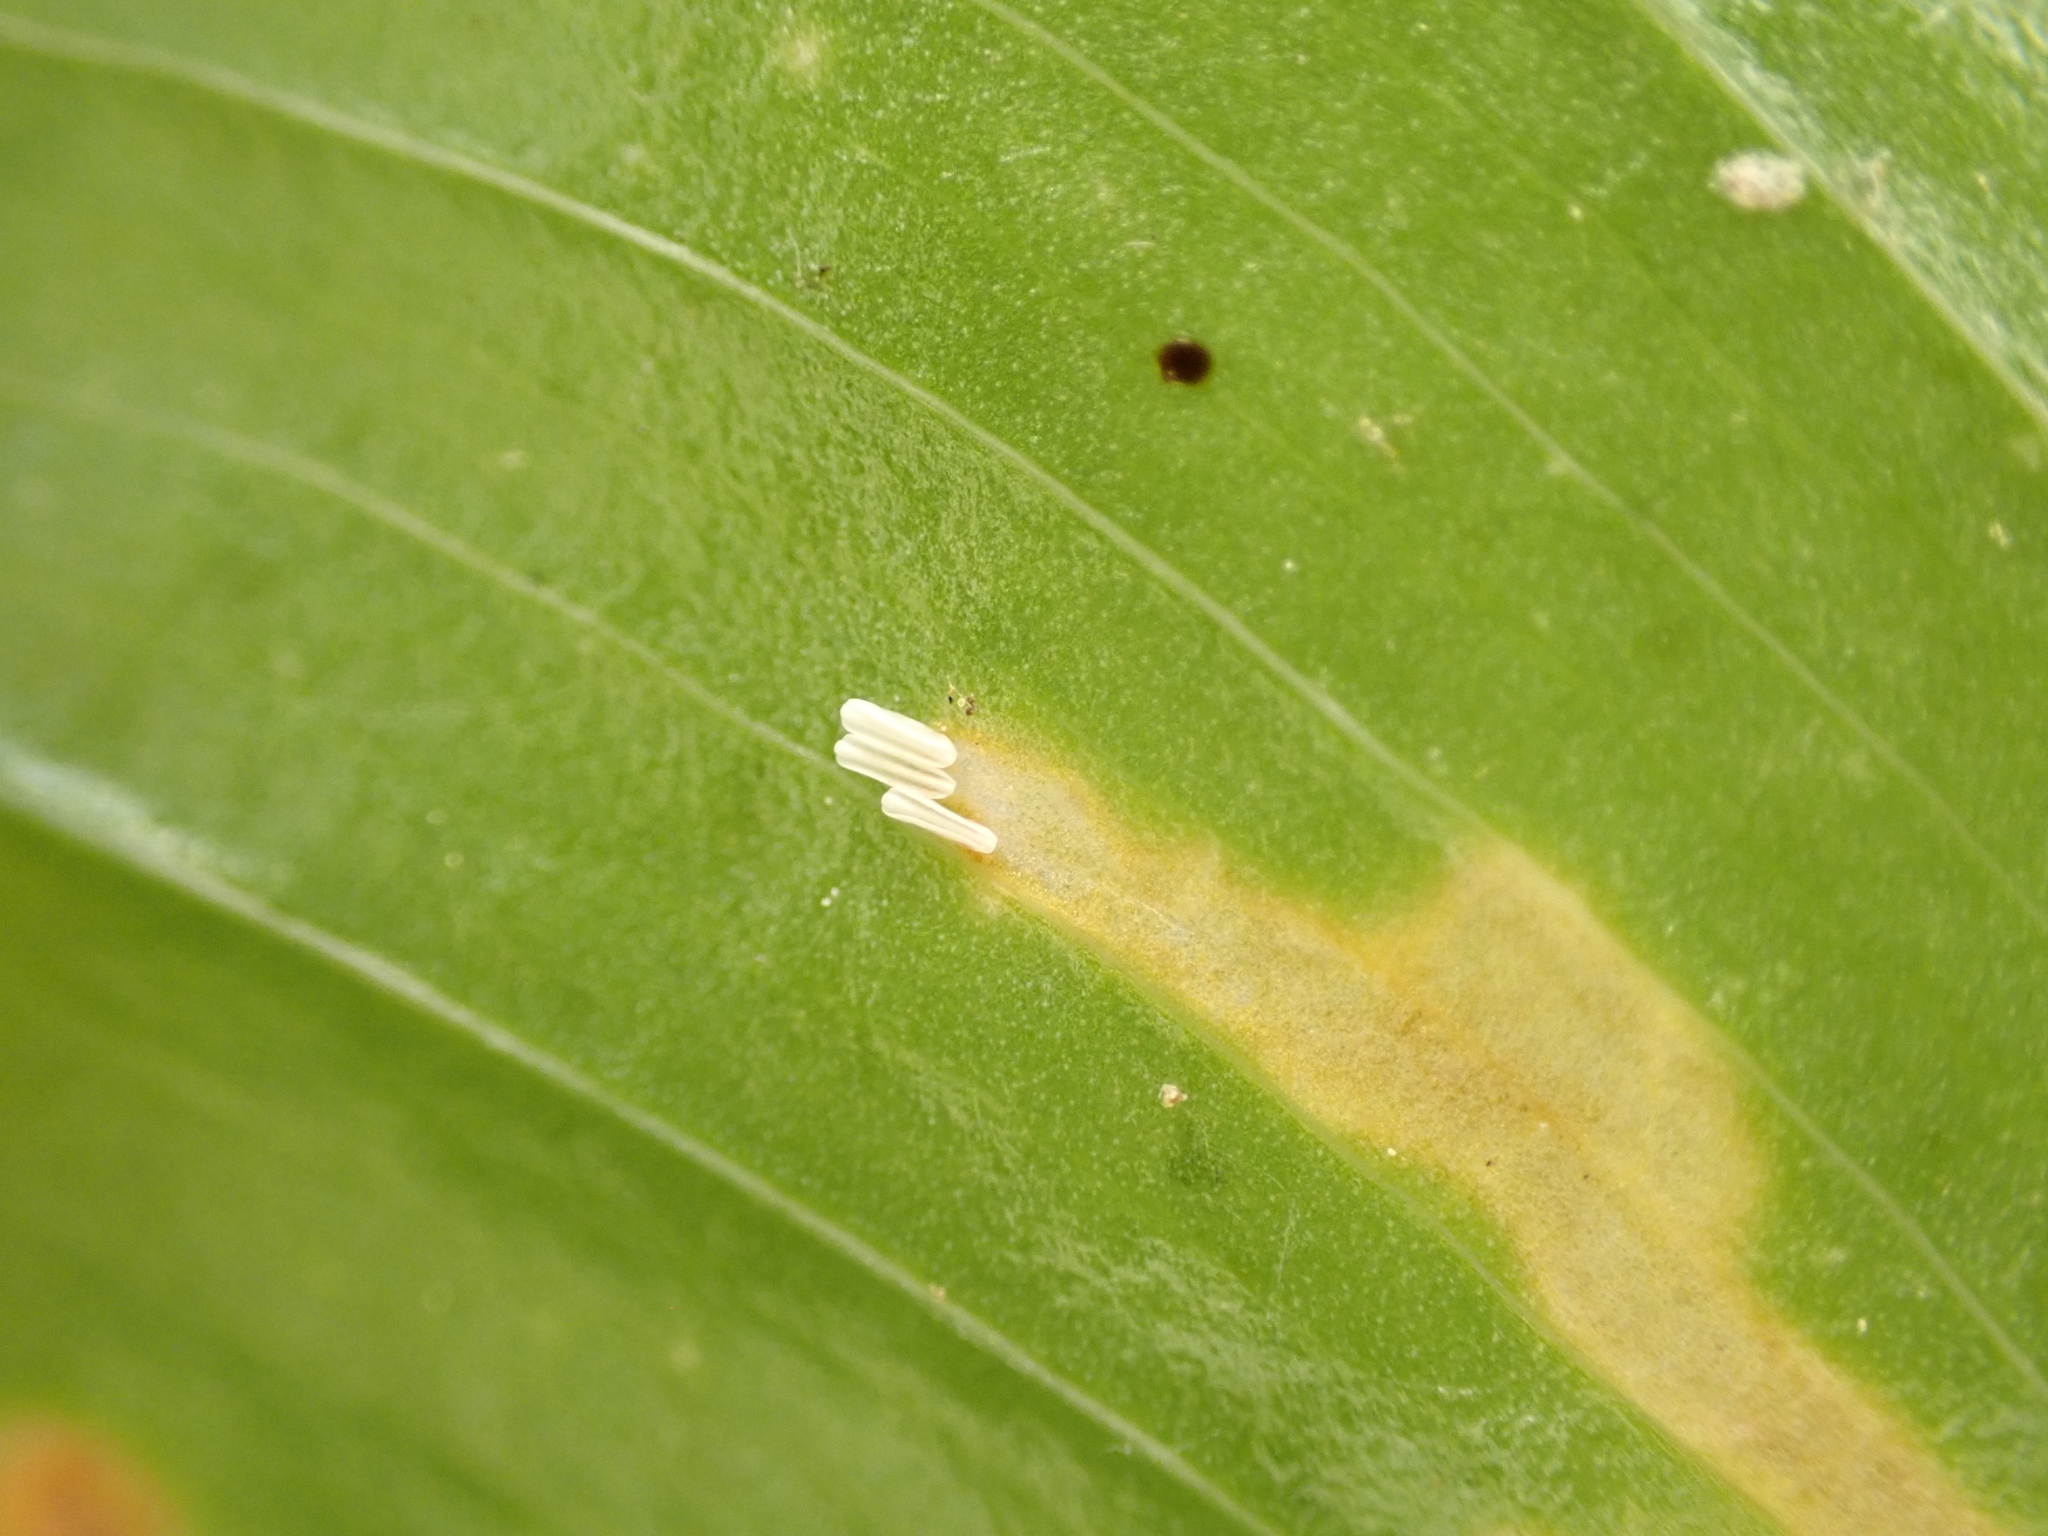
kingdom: Animalia
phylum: Arthropoda
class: Insecta
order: Diptera
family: Scathophagidae
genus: Leptopa
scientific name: Leptopa
